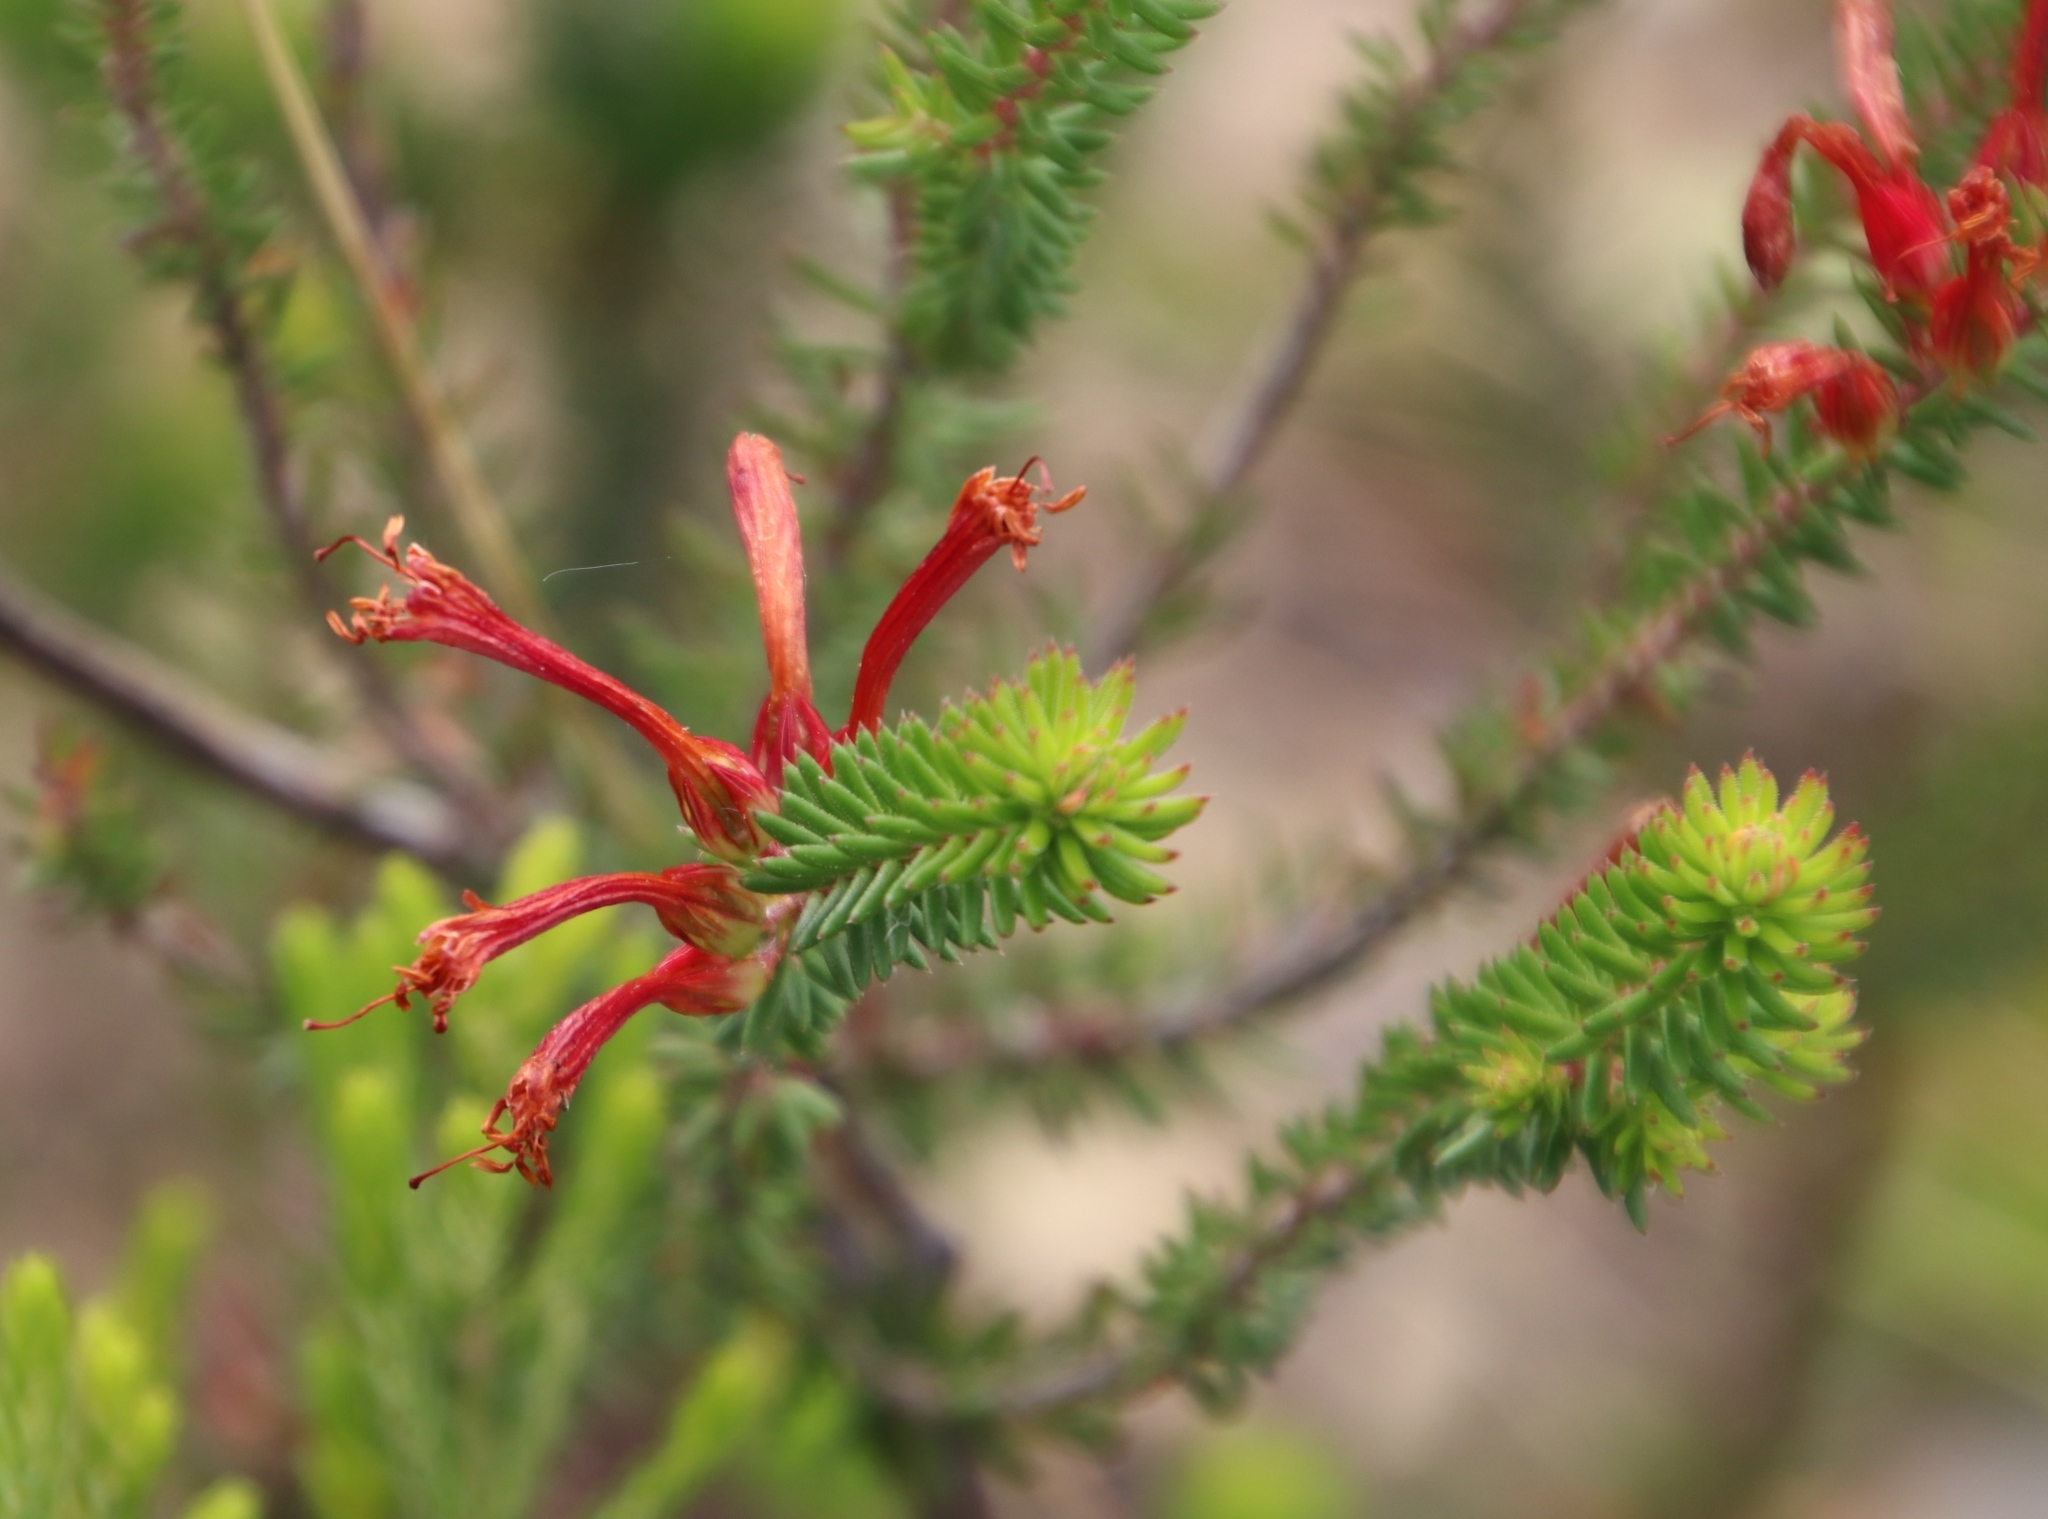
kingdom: Plantae
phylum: Tracheophyta
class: Magnoliopsida
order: Ericales
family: Ericaceae
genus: Erica
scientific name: Erica abietina
